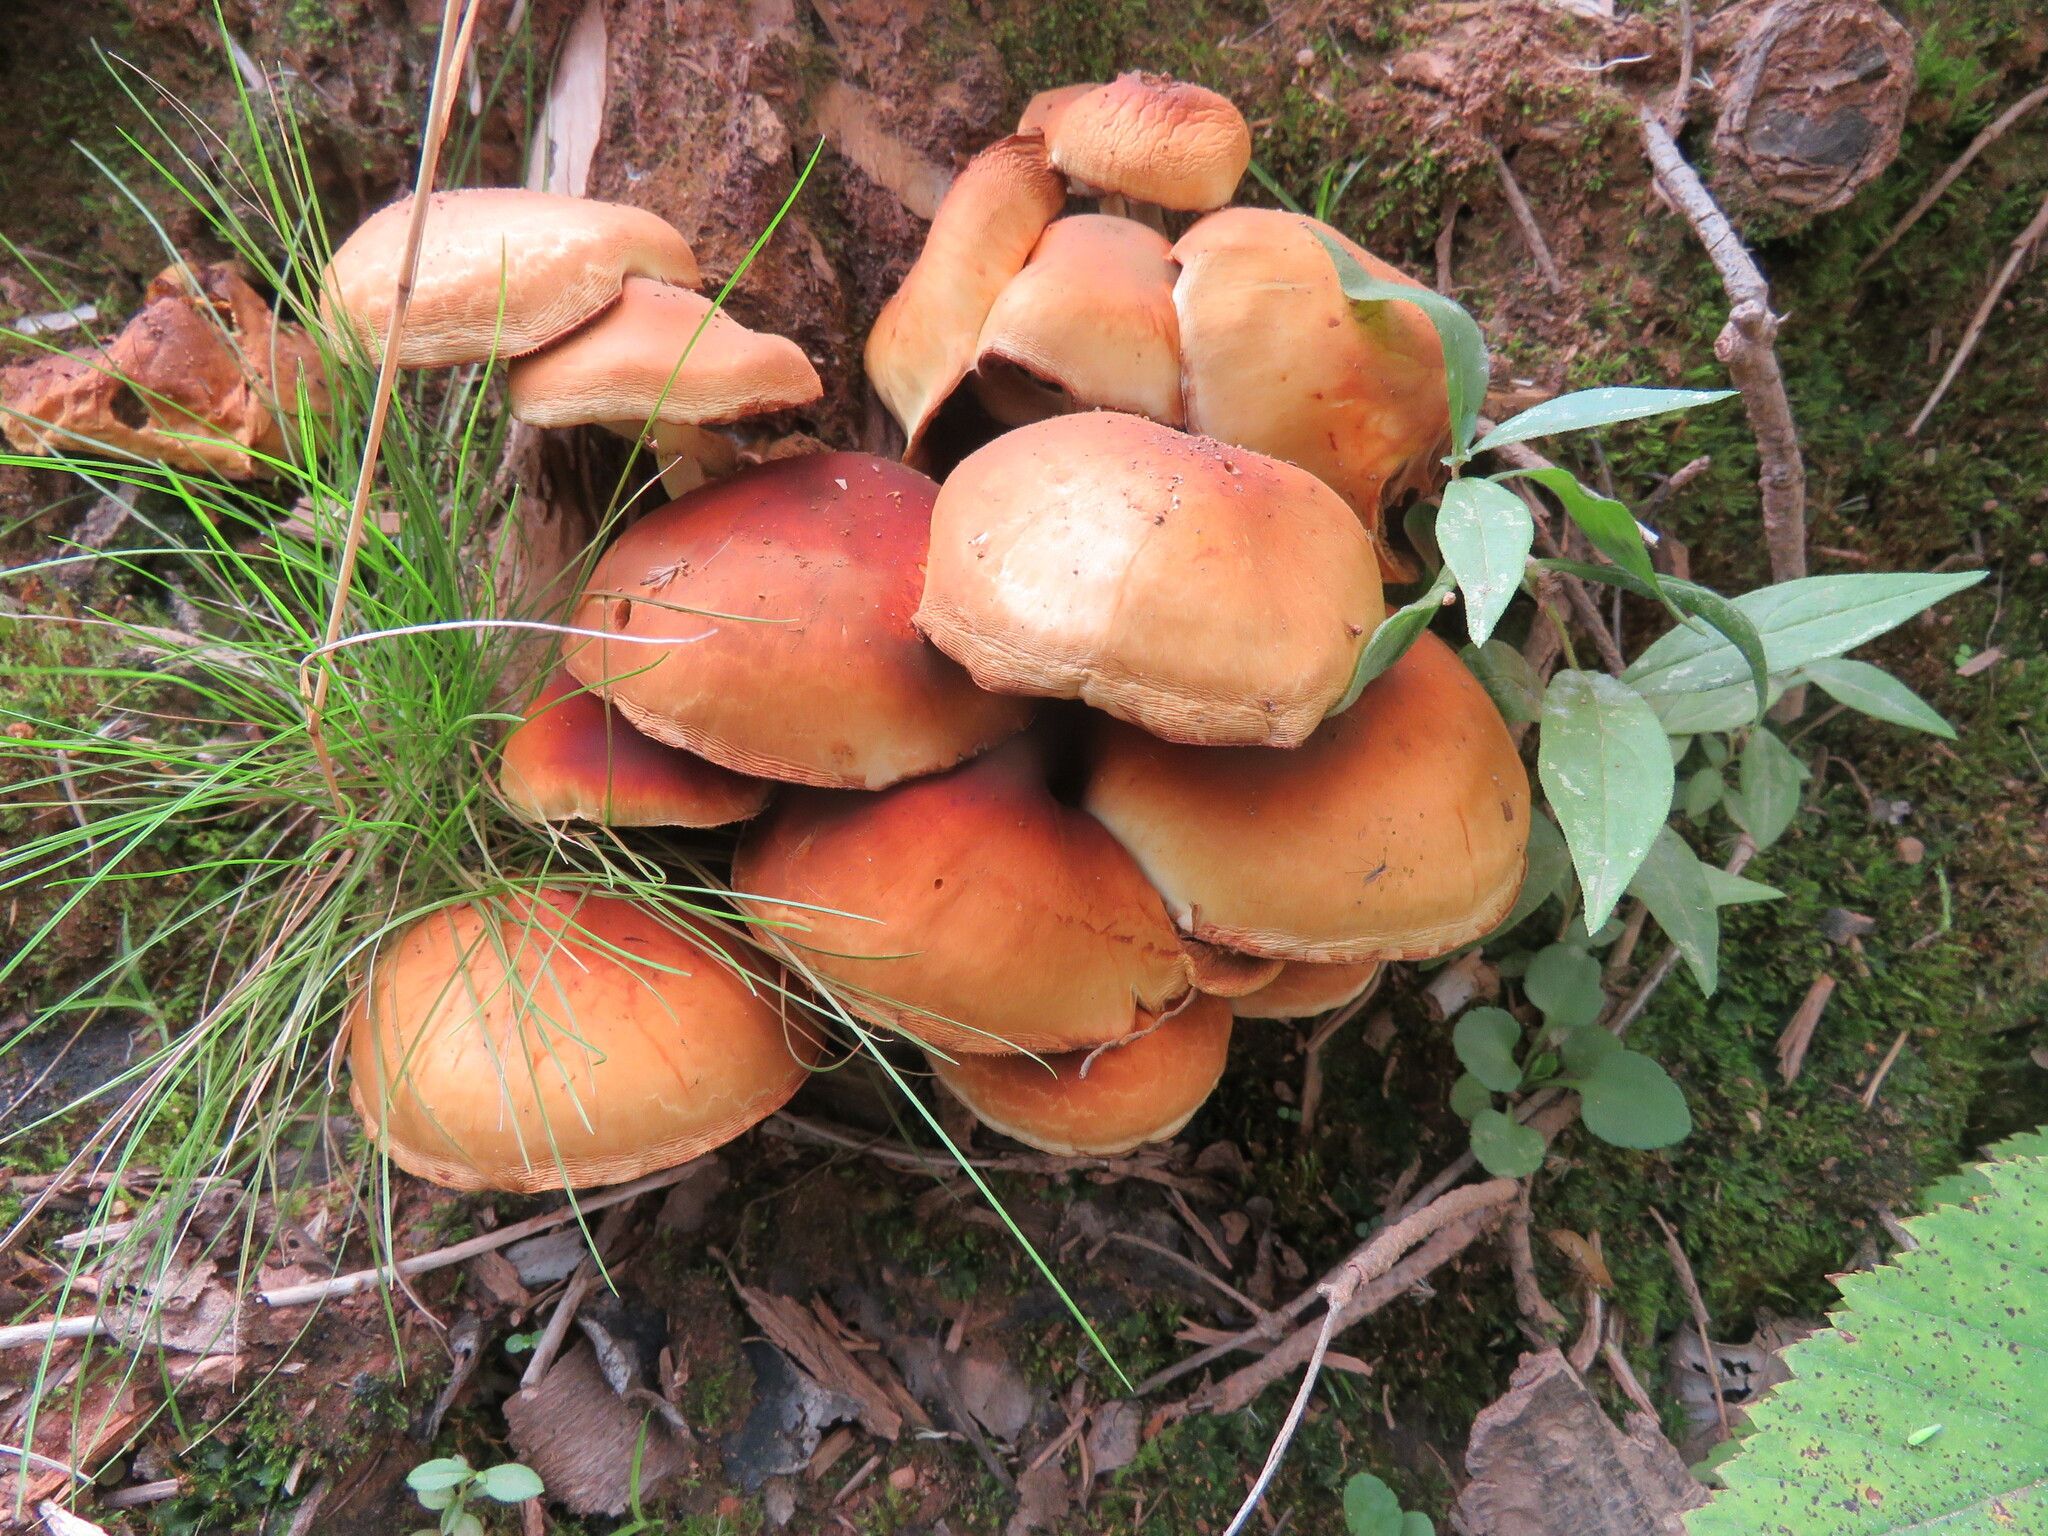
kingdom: Fungi
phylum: Basidiomycota
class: Agaricomycetes
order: Agaricales
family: Strophariaceae
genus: Kuehneromyces
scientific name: Kuehneromyces mutabilis
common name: Sheathed woodtuft
